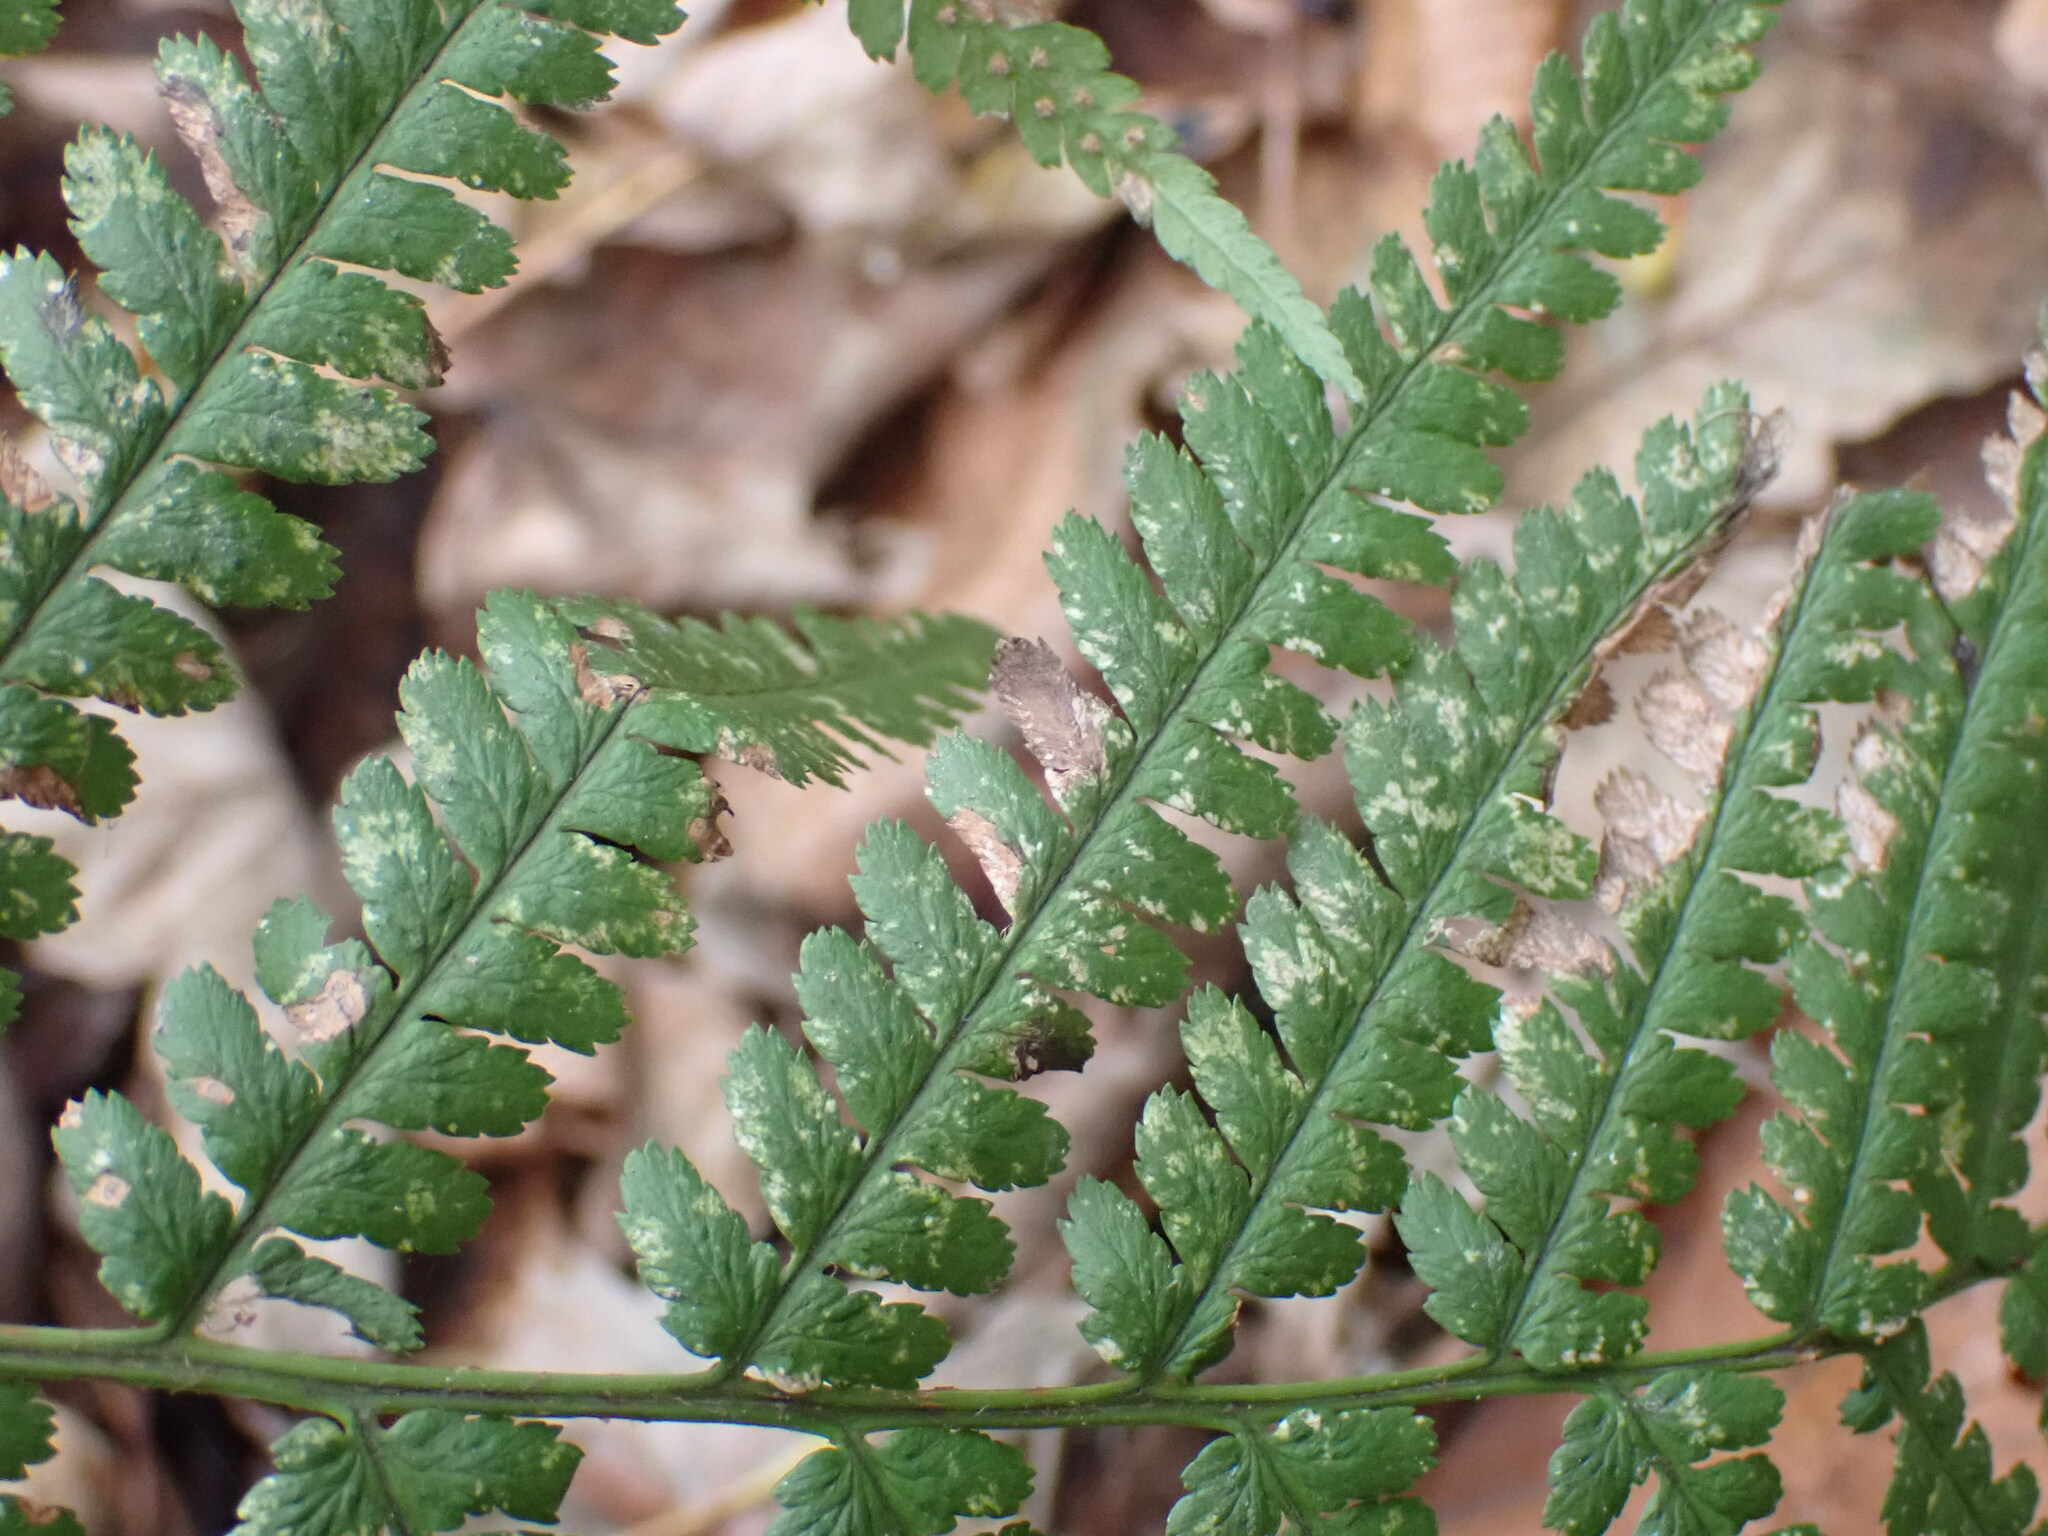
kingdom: Plantae
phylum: Tracheophyta
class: Polypodiopsida
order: Polypodiales
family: Dryopteridaceae
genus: Dryopteris
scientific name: Dryopteris filix-mas
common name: Male fern
